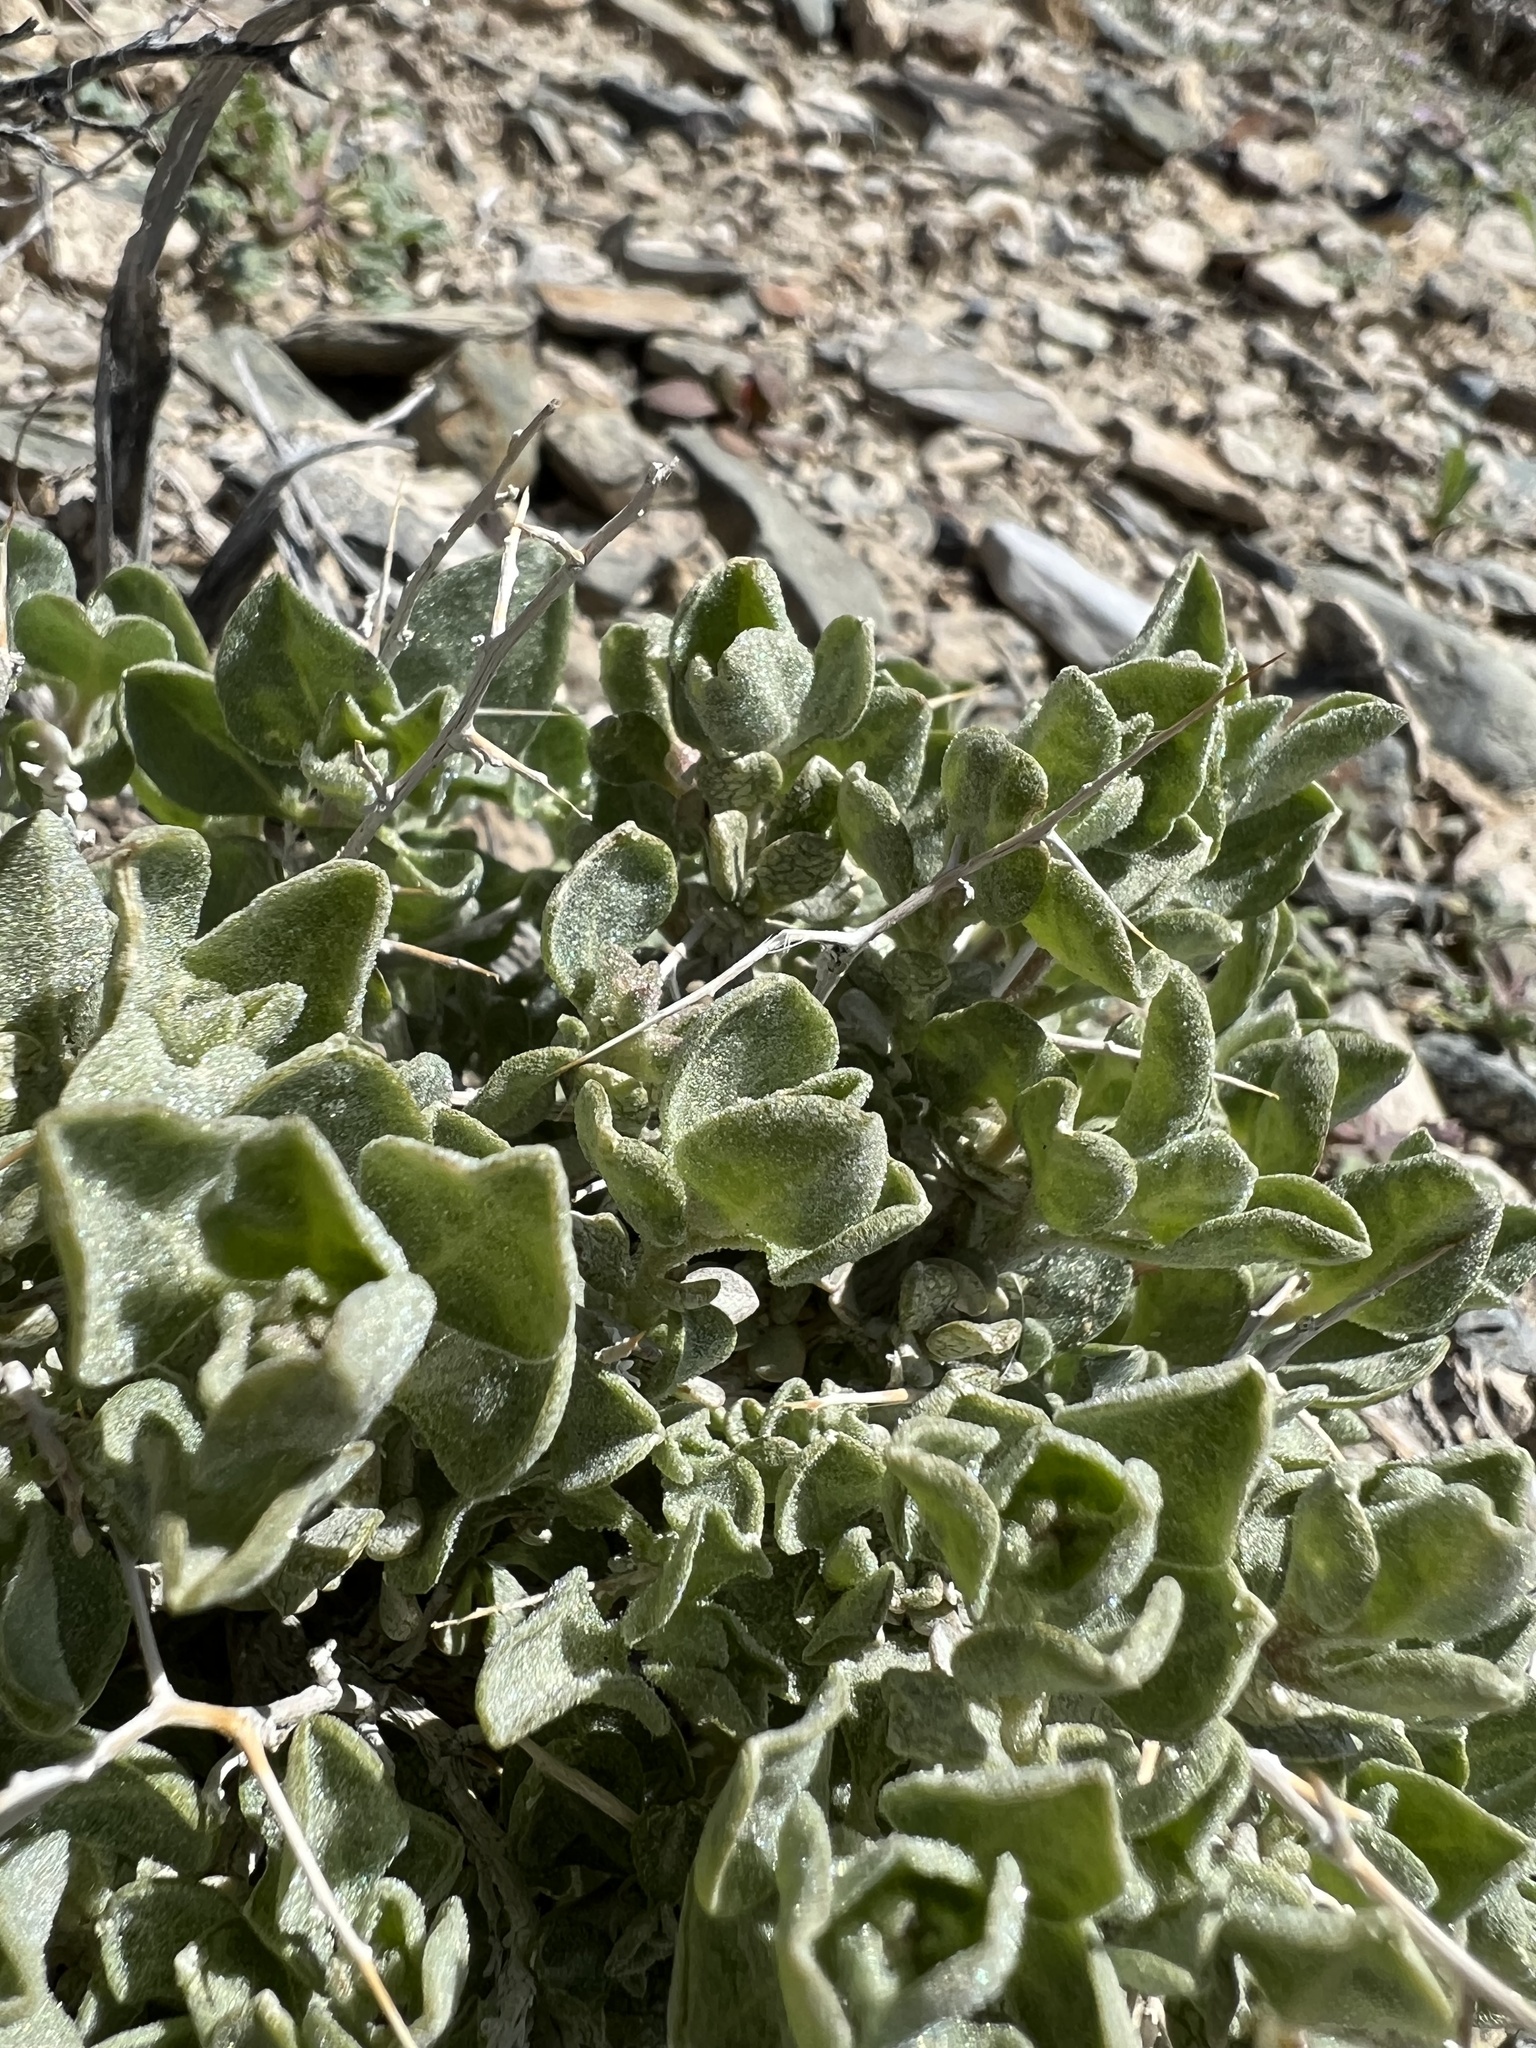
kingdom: Plantae
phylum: Tracheophyta
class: Magnoliopsida
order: Caryophyllales
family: Amaranthaceae
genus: Atriplex
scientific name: Atriplex confertifolia
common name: Shadscale
